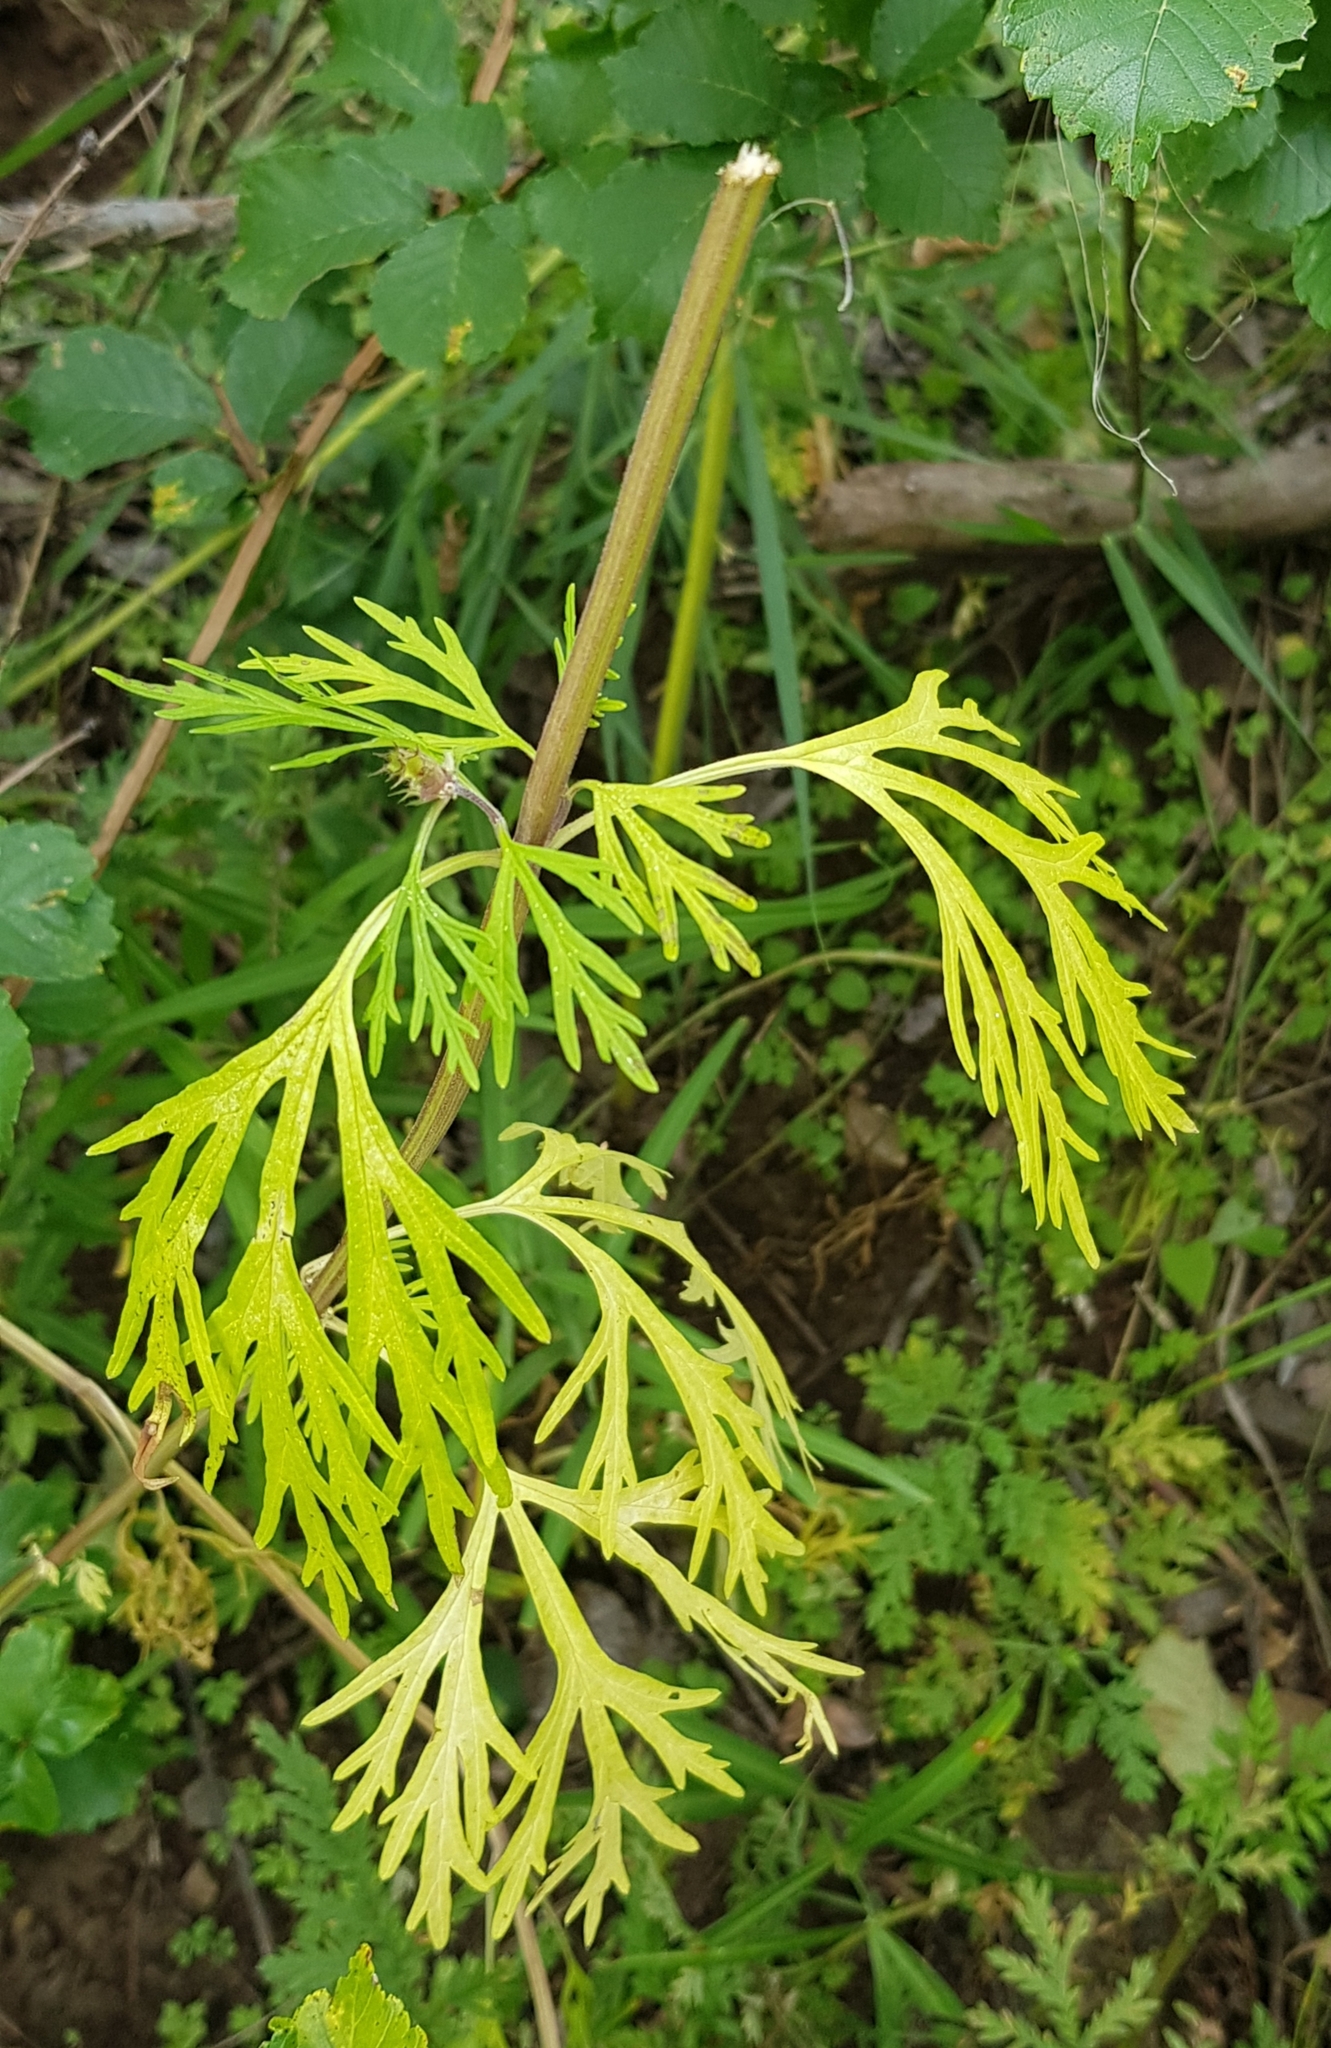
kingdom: Plantae
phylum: Tracheophyta
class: Magnoliopsida
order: Lamiales
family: Lamiaceae
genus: Leonurus
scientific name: Leonurus sibiricus
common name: Honeyweed
